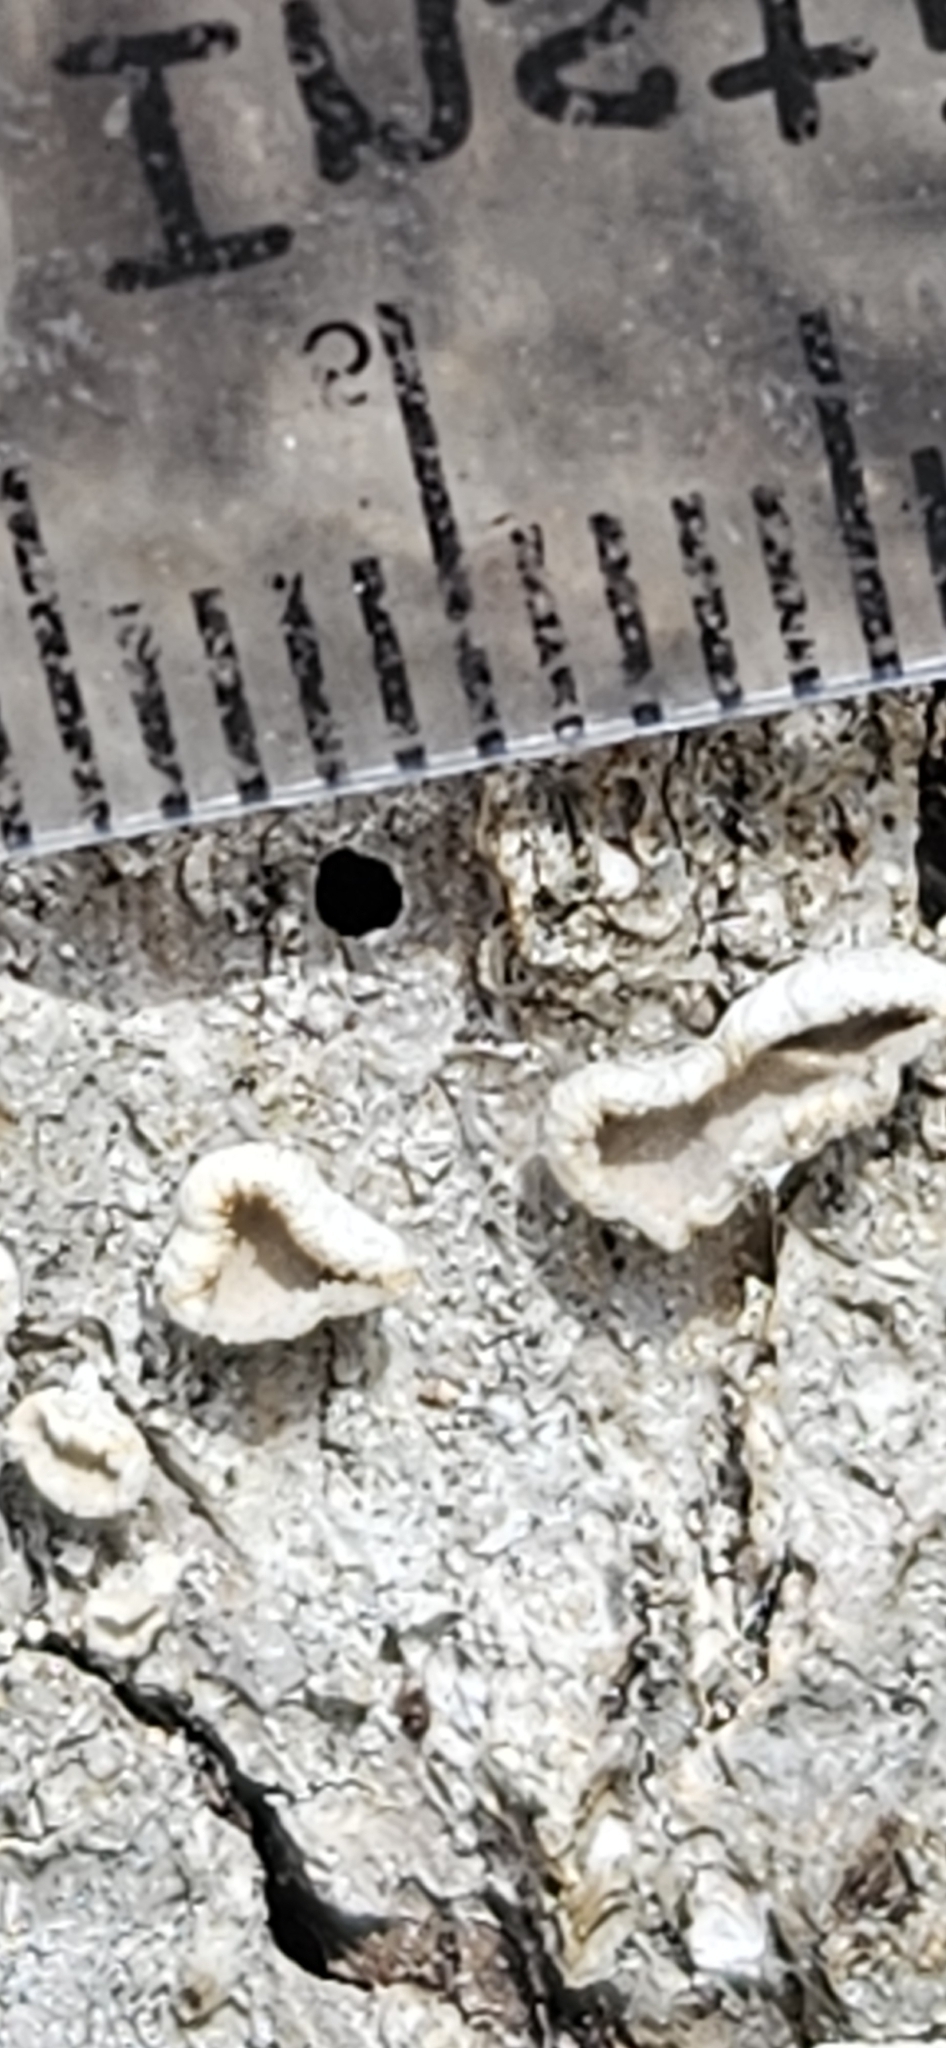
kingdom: Fungi
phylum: Basidiomycota
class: Agaricomycetes
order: Russulales
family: Stereaceae
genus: Acanthophysium
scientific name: Acanthophysium oakesii
